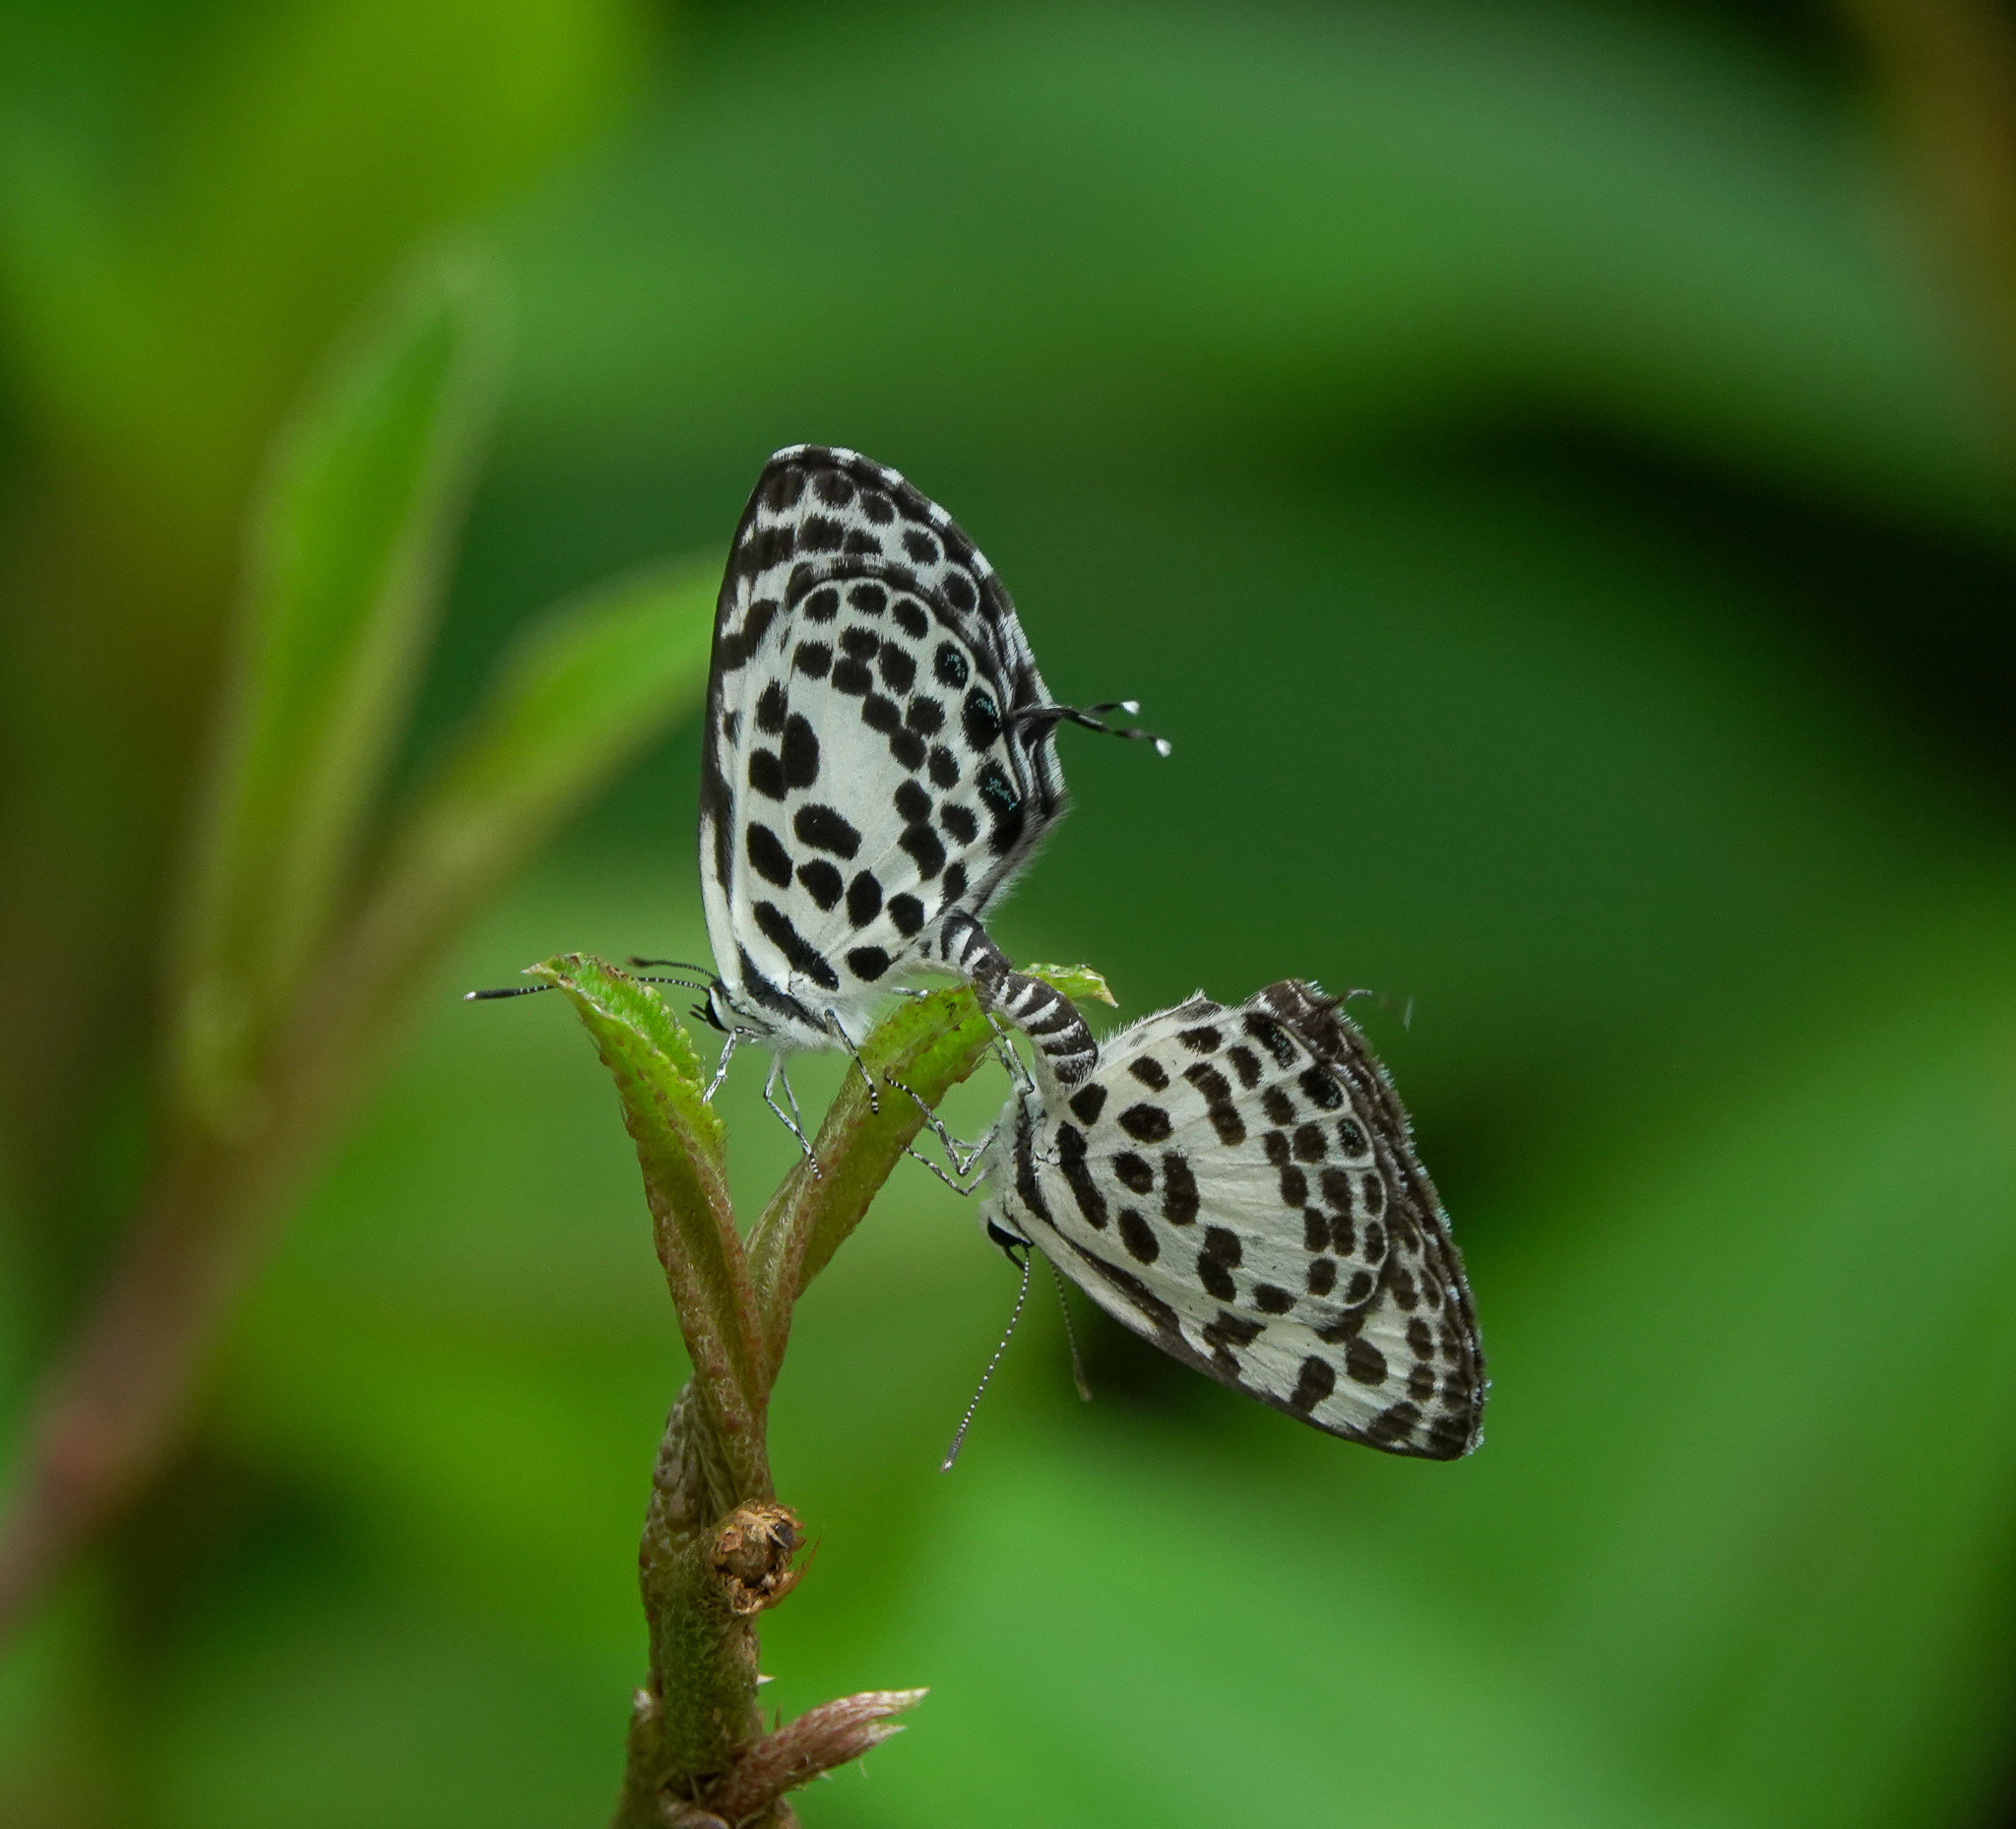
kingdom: Animalia
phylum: Arthropoda
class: Insecta
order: Lepidoptera
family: Lycaenidae
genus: Castalius
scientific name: Castalius rosimon
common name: Common pierrot
